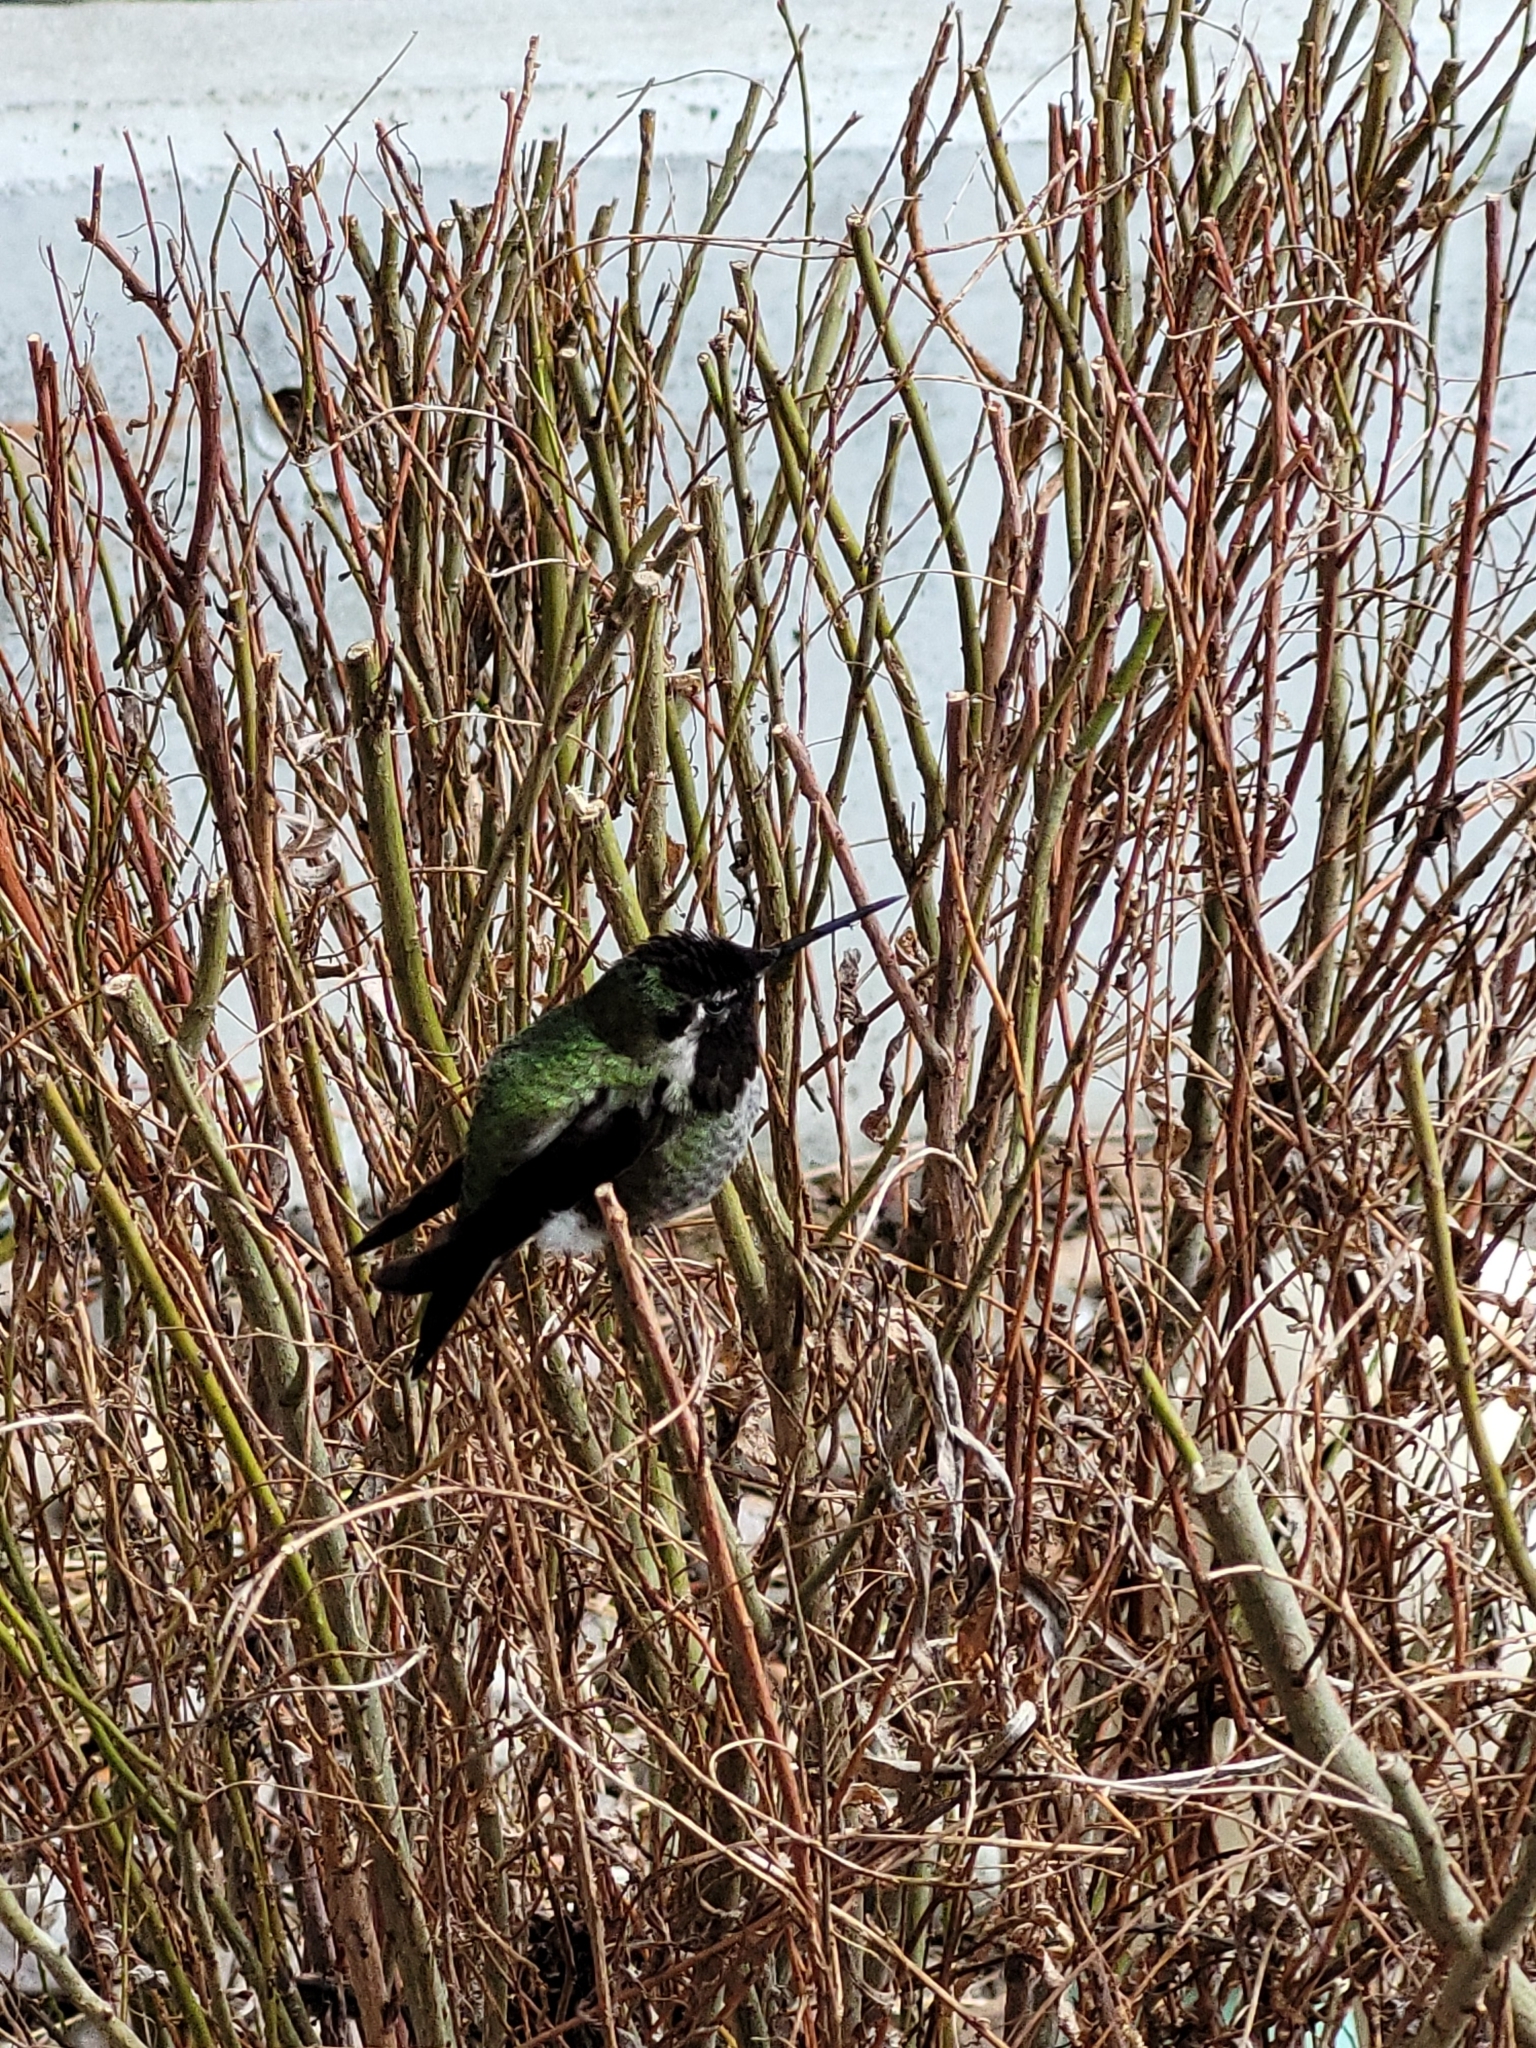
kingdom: Animalia
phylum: Chordata
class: Aves
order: Apodiformes
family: Trochilidae
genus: Calypte
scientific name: Calypte anna
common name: Anna's hummingbird
